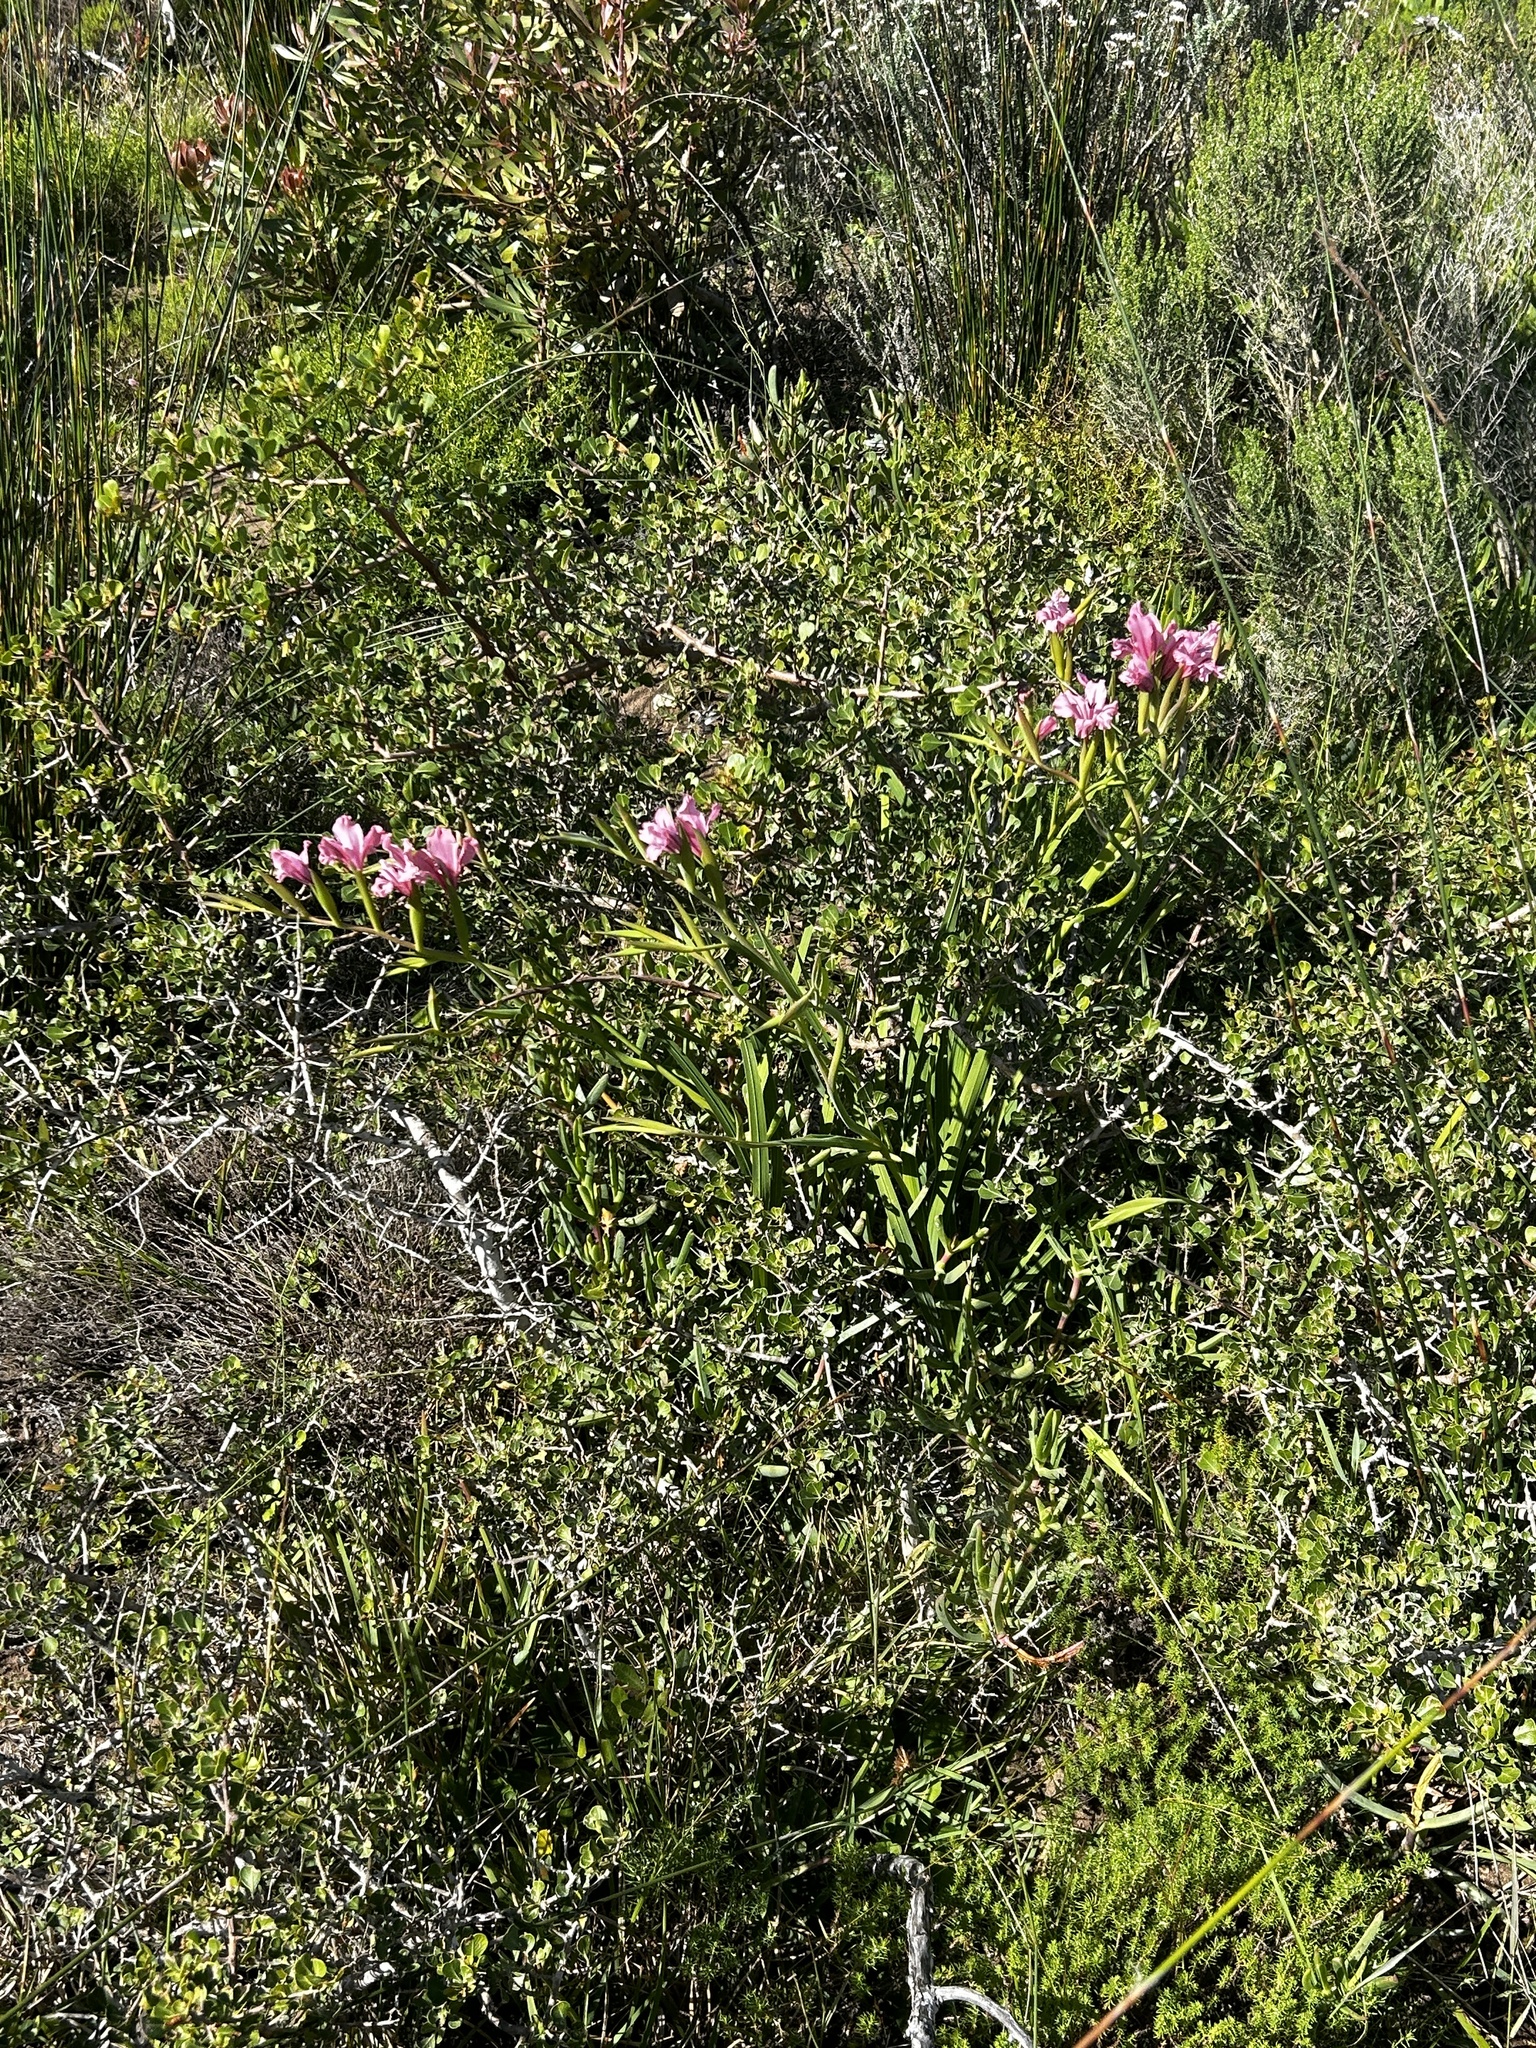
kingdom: Plantae
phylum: Tracheophyta
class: Liliopsida
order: Asparagales
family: Iridaceae
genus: Gladiolus
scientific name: Gladiolus grandiflorus
